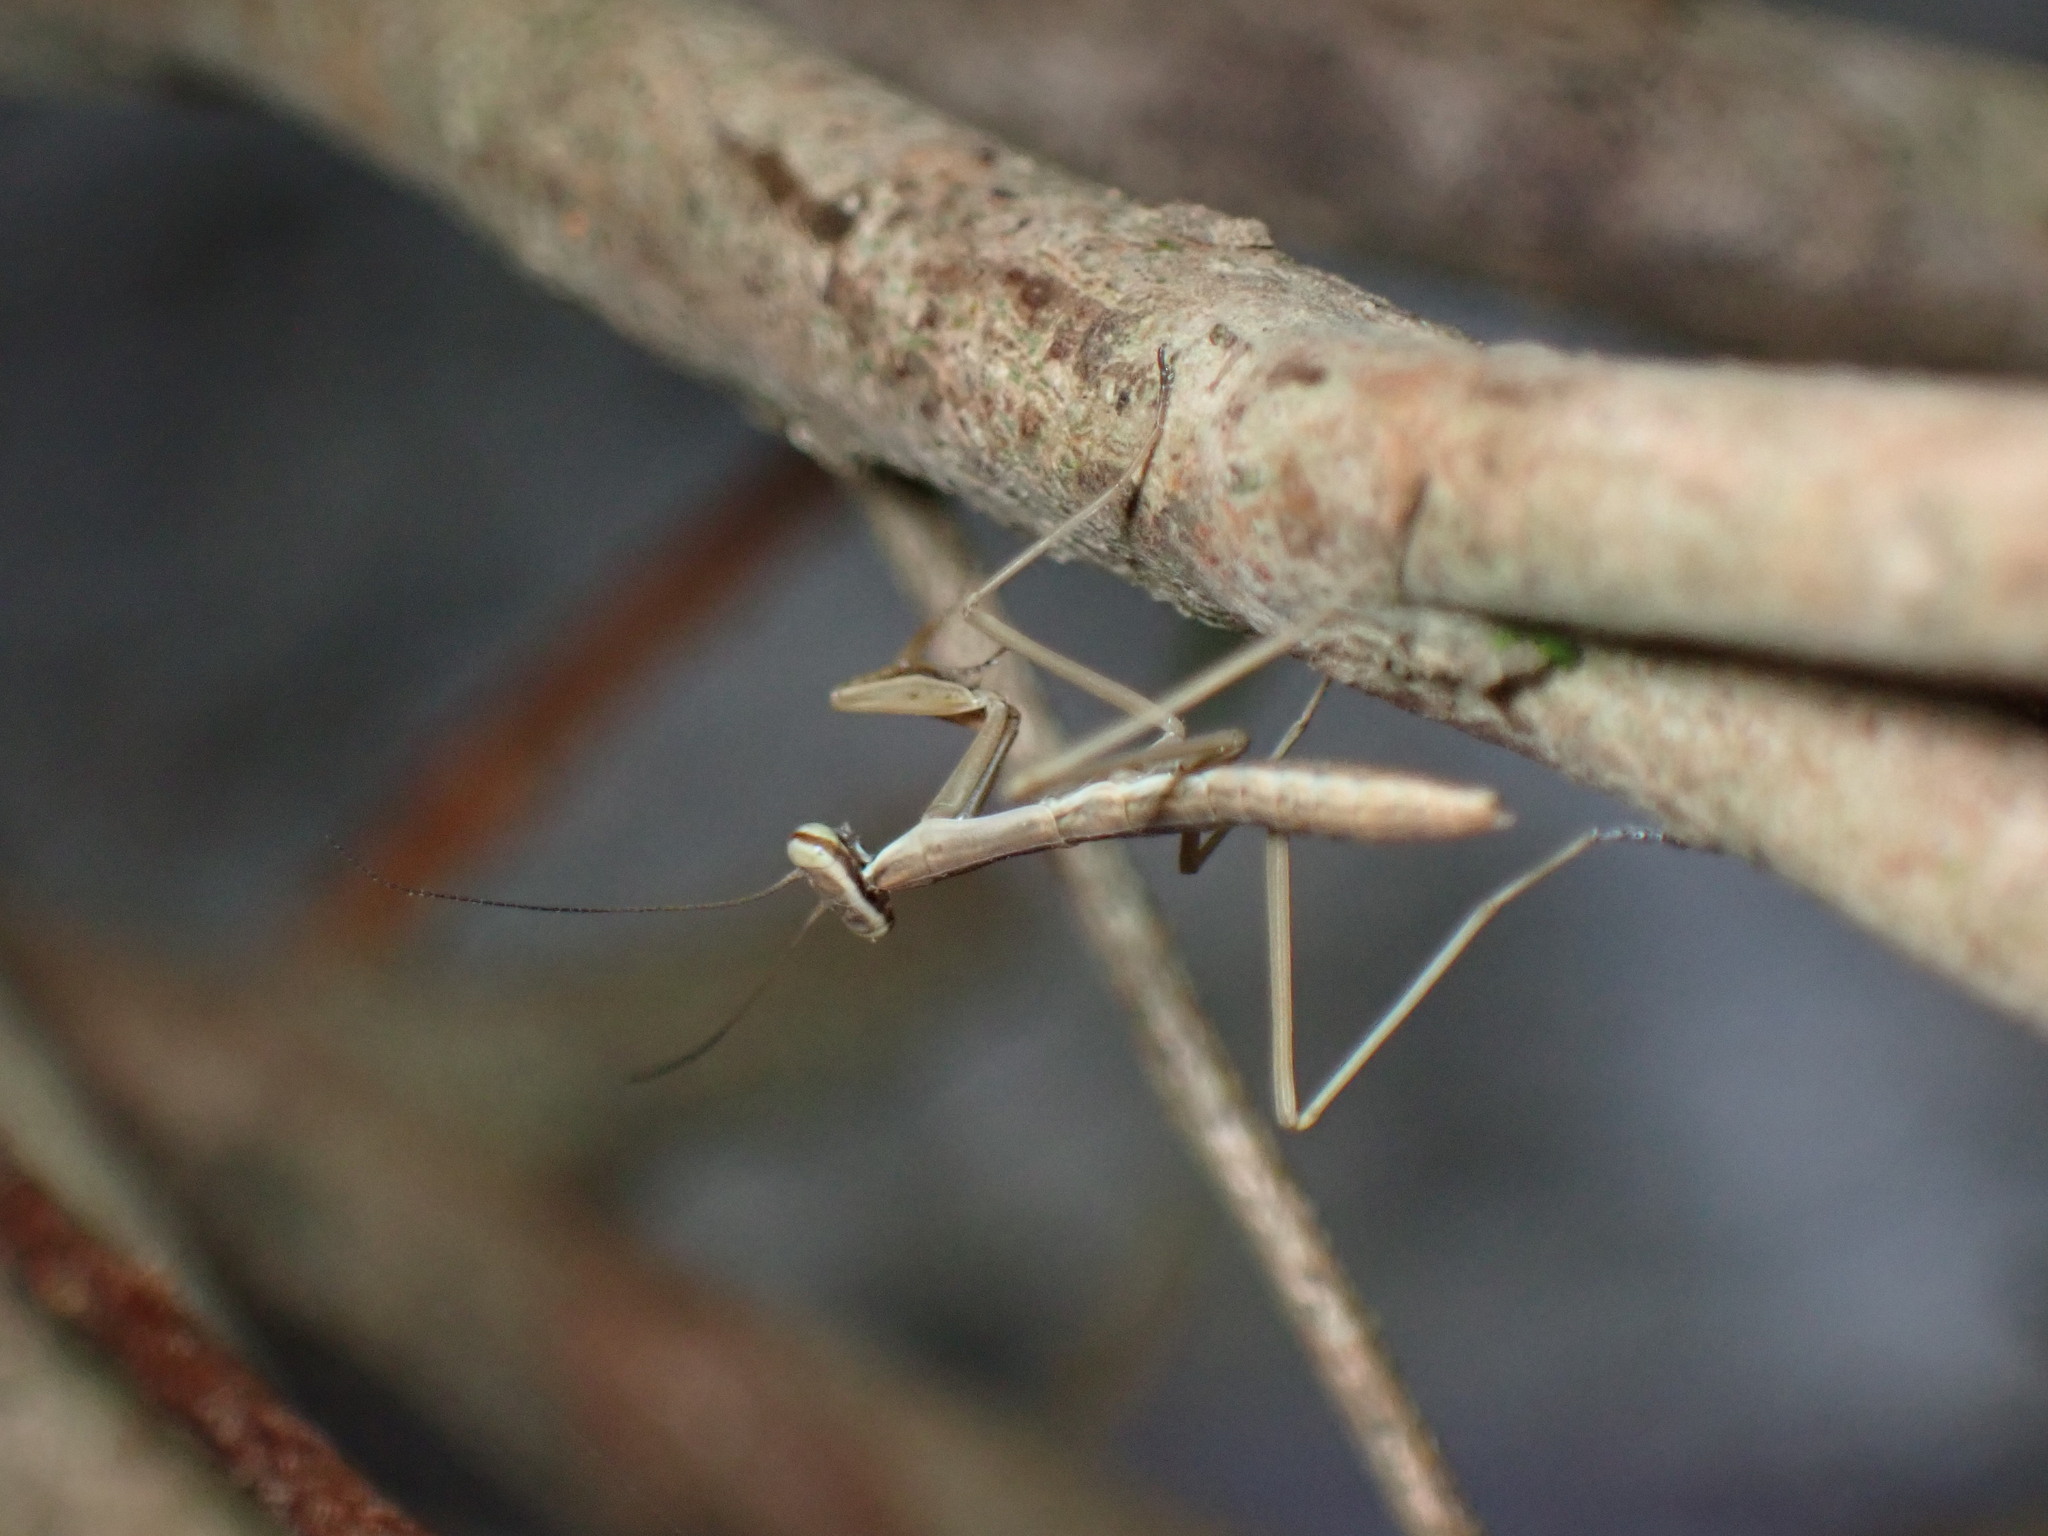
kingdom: Animalia
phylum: Arthropoda
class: Insecta
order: Mantodea
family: Mantidae
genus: Statilia
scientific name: Statilia maculata
